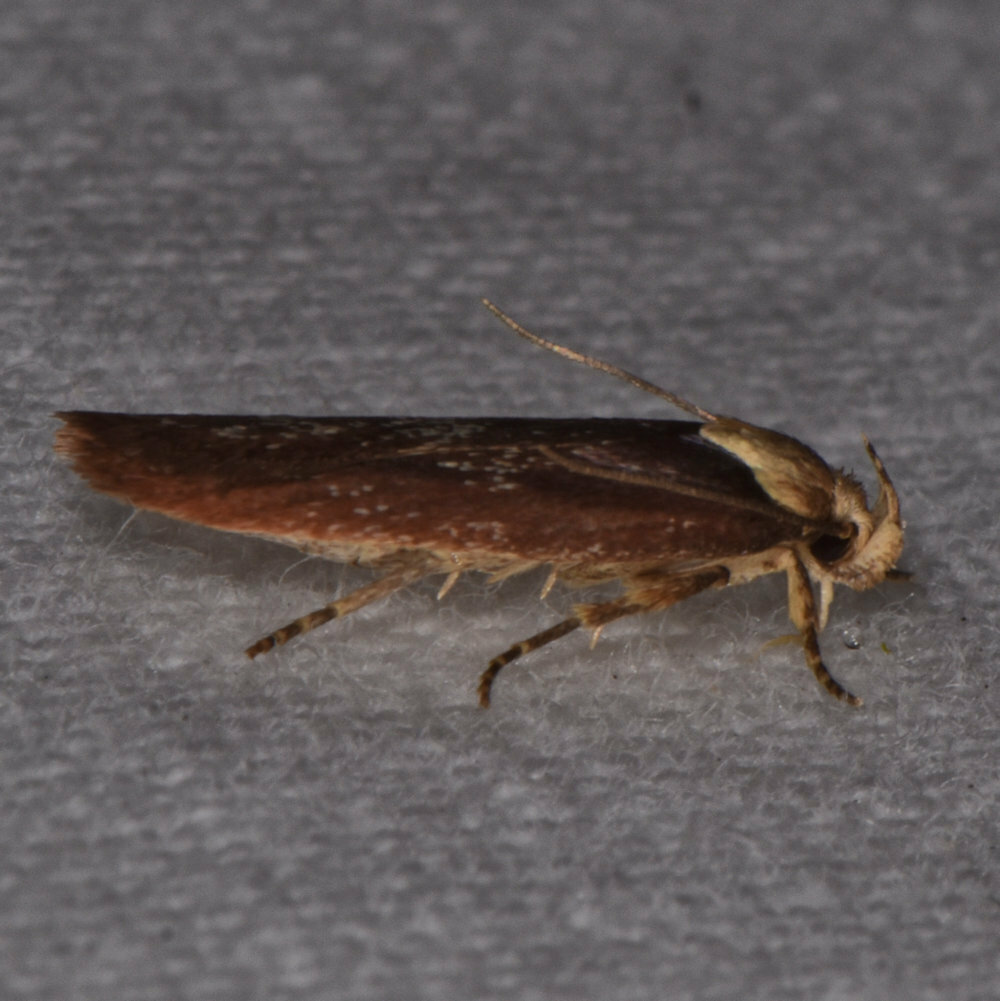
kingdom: Animalia
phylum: Arthropoda
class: Insecta
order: Lepidoptera
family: Depressariidae
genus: Depressaria
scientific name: Depressaria depressana
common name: Lost flat-body
